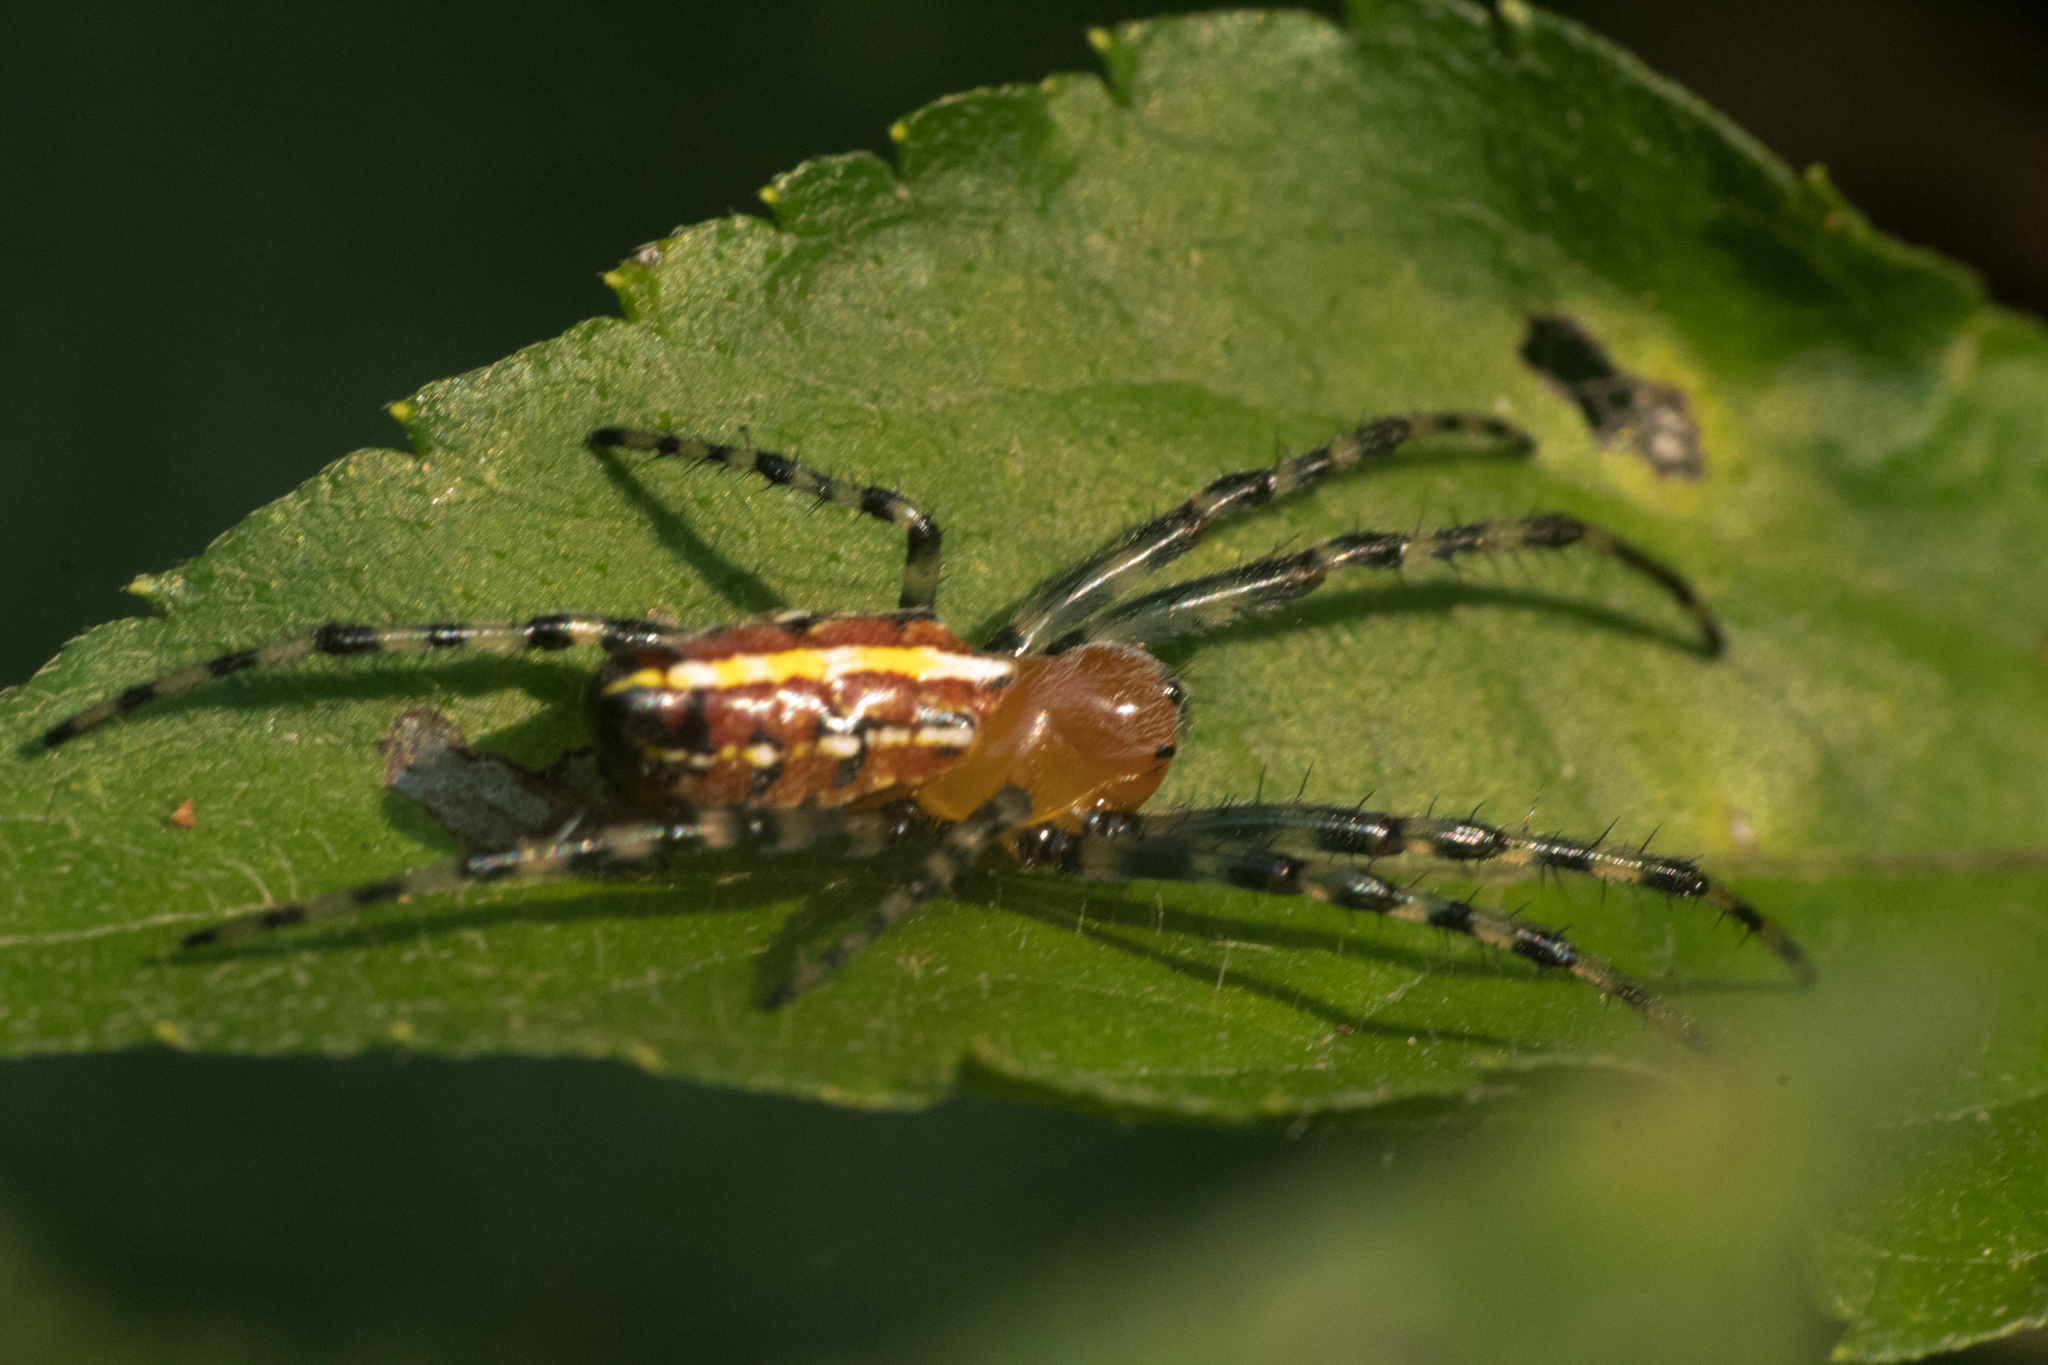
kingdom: Animalia
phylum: Arthropoda
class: Arachnida
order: Araneae
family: Araneidae
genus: Alpaida
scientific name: Alpaida grayi
